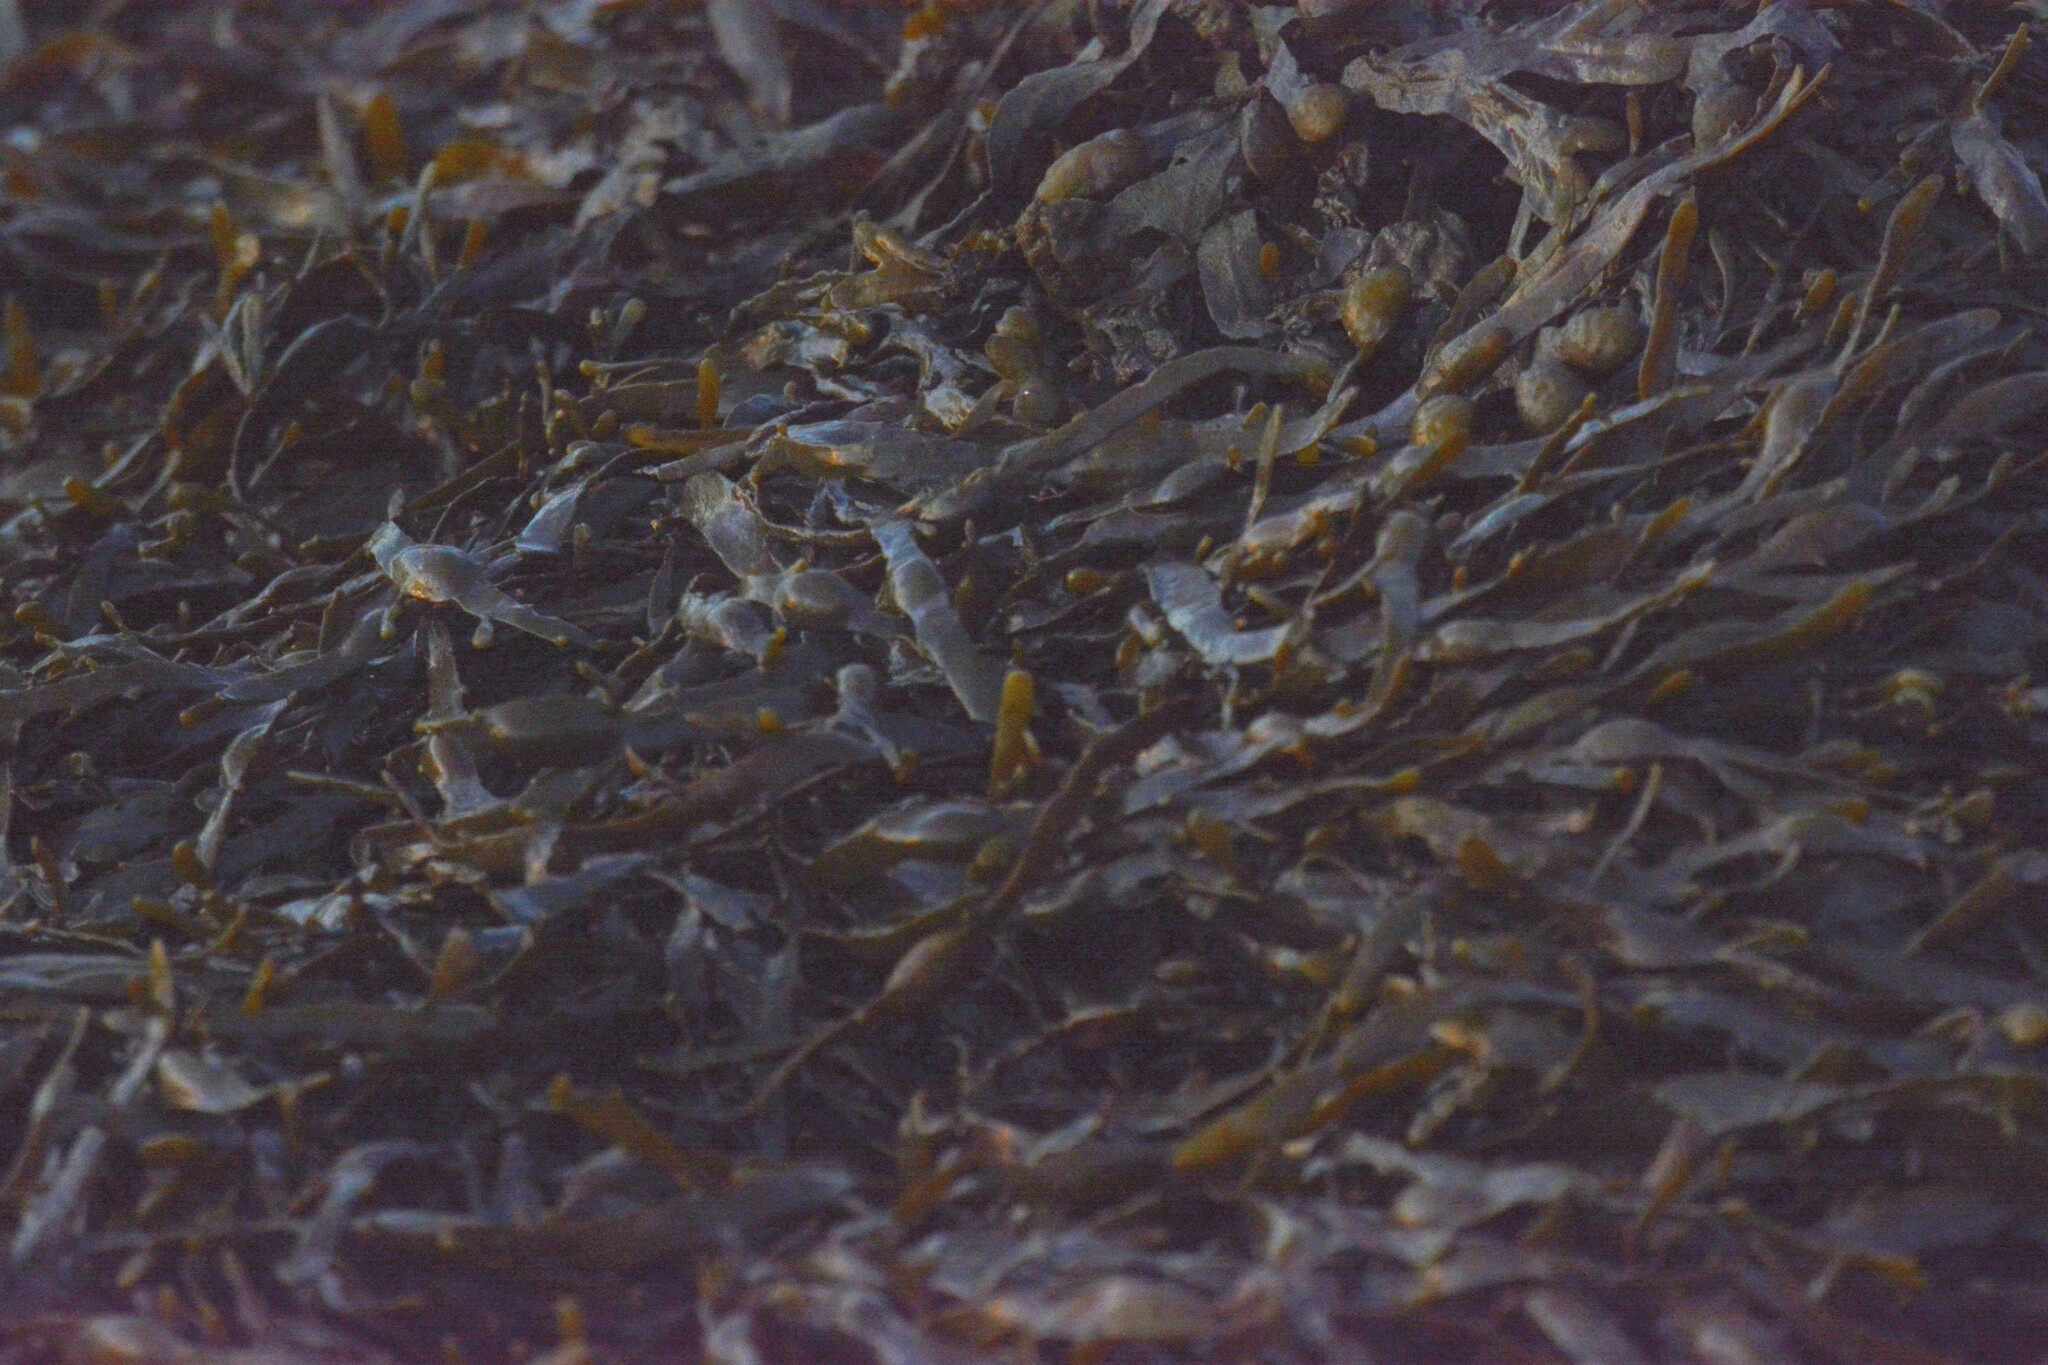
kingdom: Chromista
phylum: Ochrophyta
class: Phaeophyceae
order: Fucales
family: Fucaceae
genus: Ascophyllum
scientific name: Ascophyllum nodosum
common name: Knotted wrack
